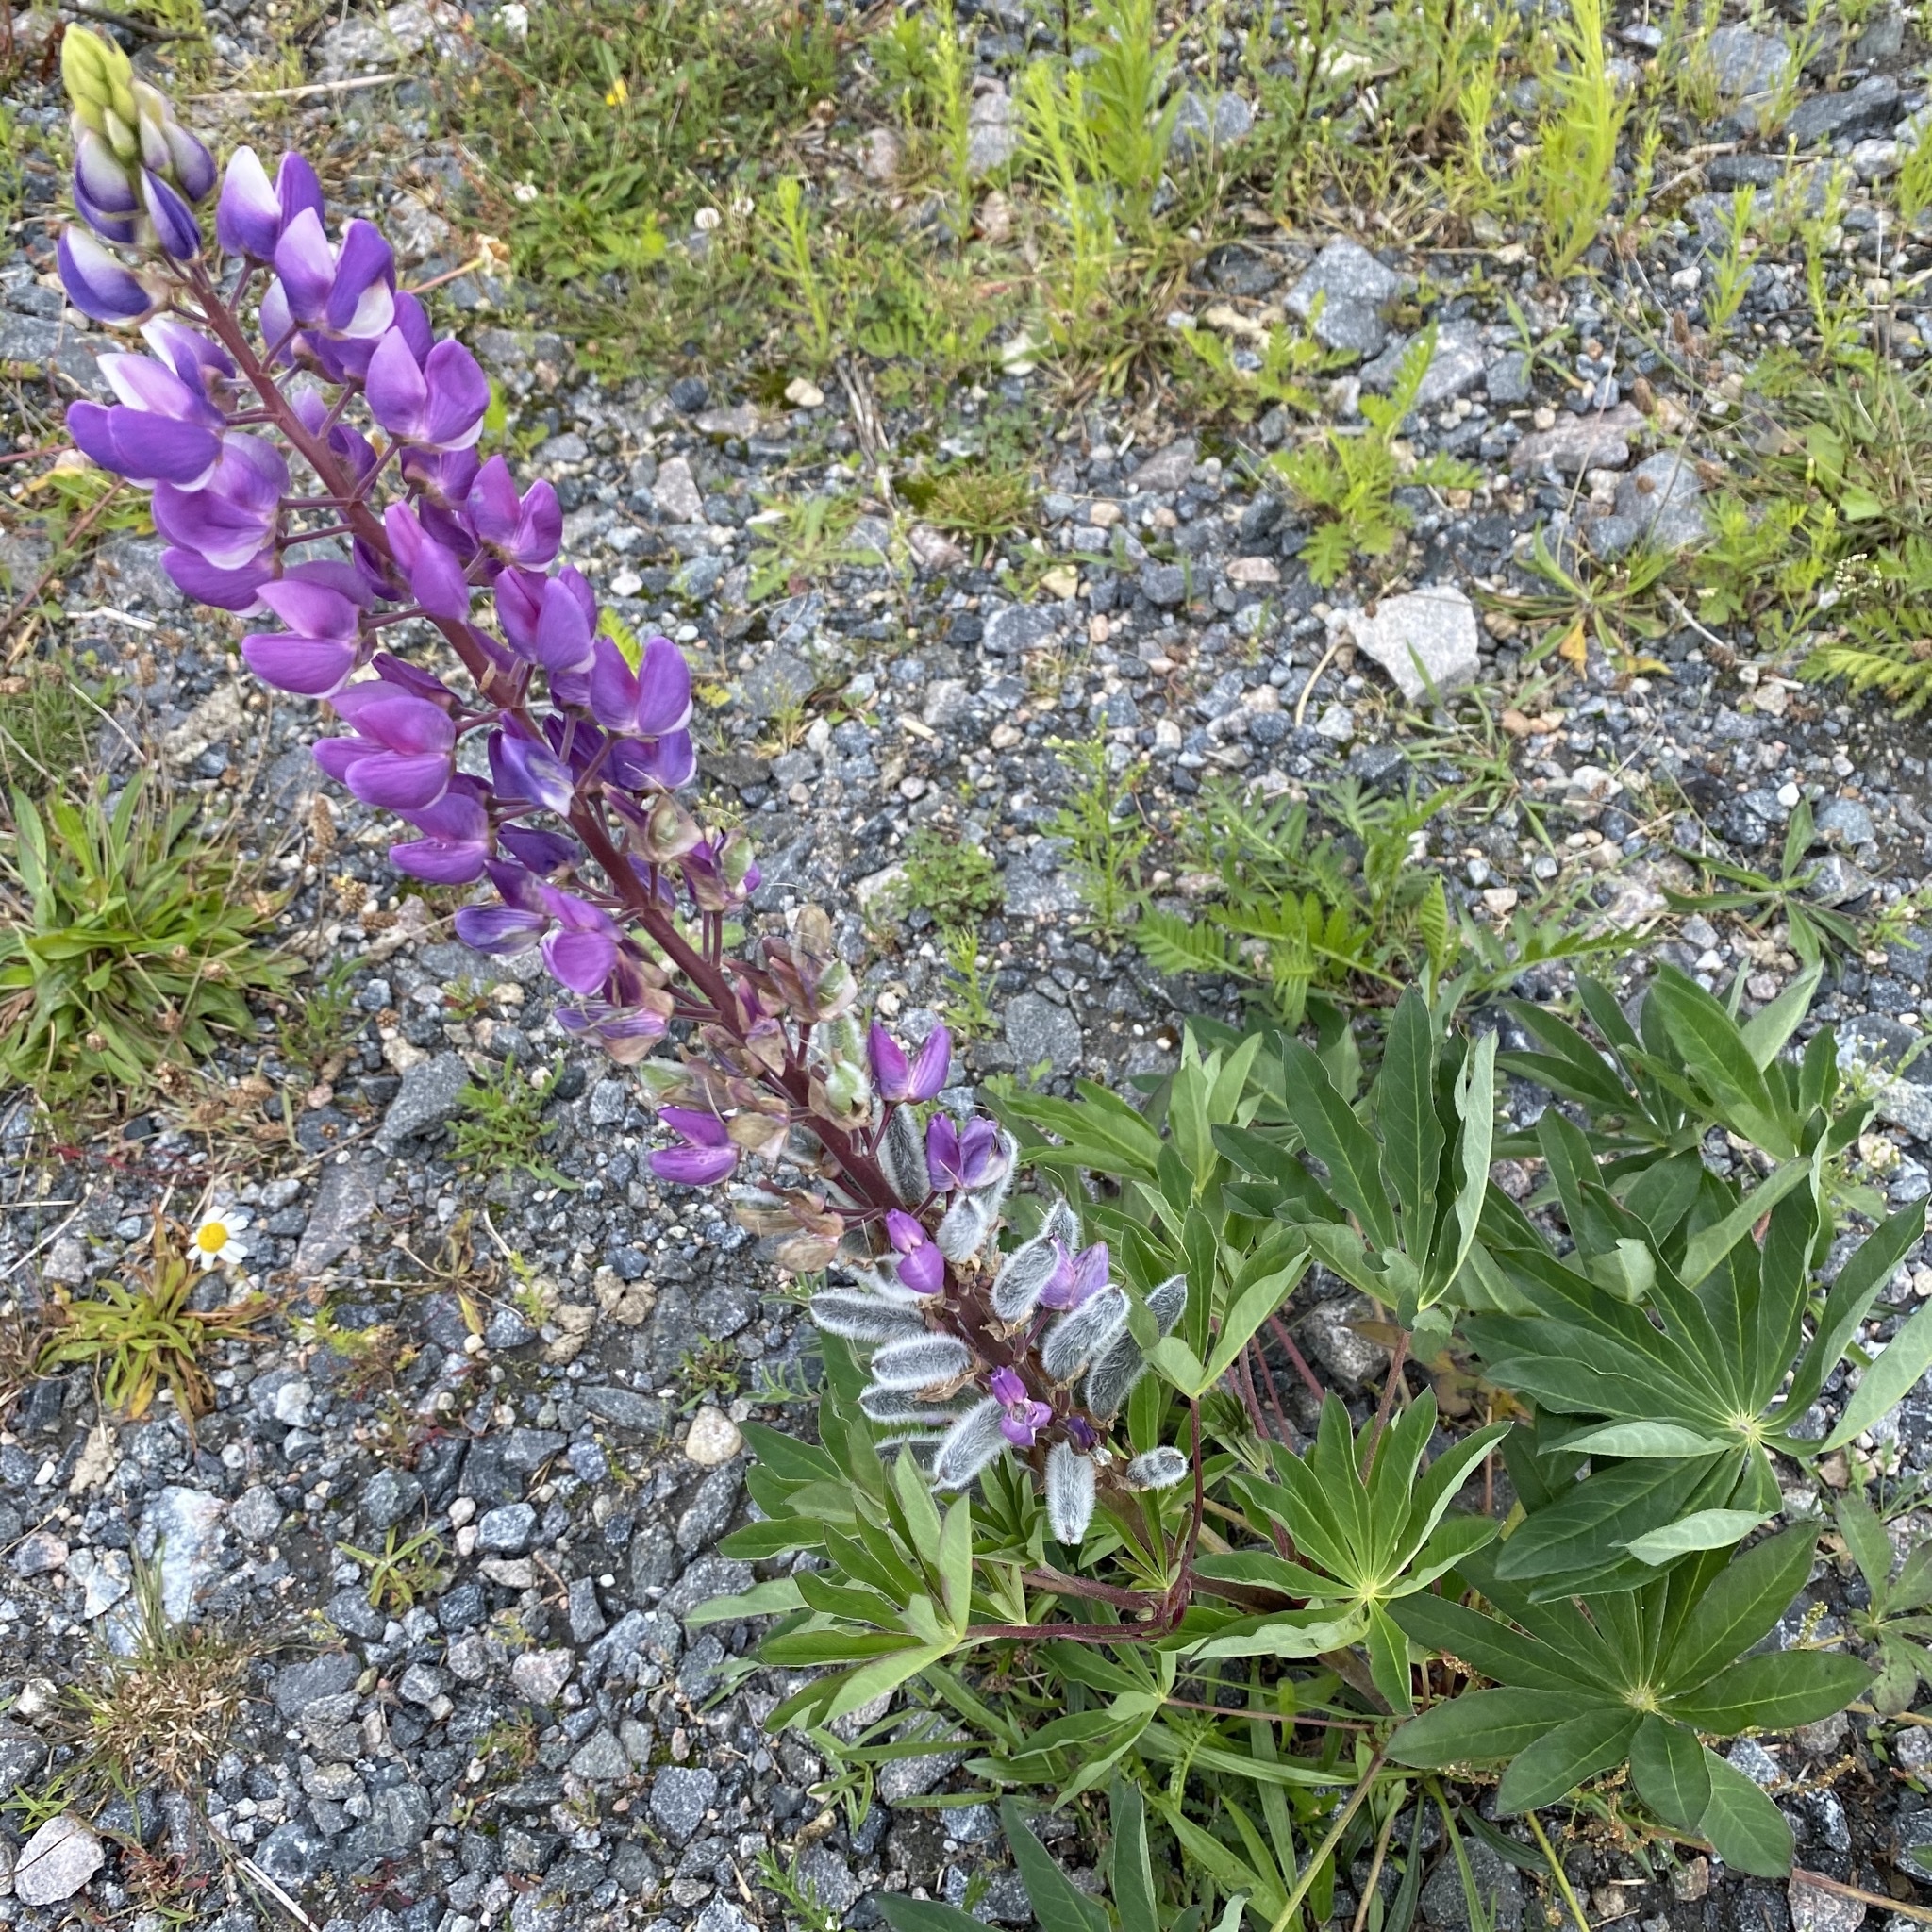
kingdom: Plantae
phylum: Tracheophyta
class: Magnoliopsida
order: Fabales
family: Fabaceae
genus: Lupinus
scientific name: Lupinus polyphyllus
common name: Garden lupin
